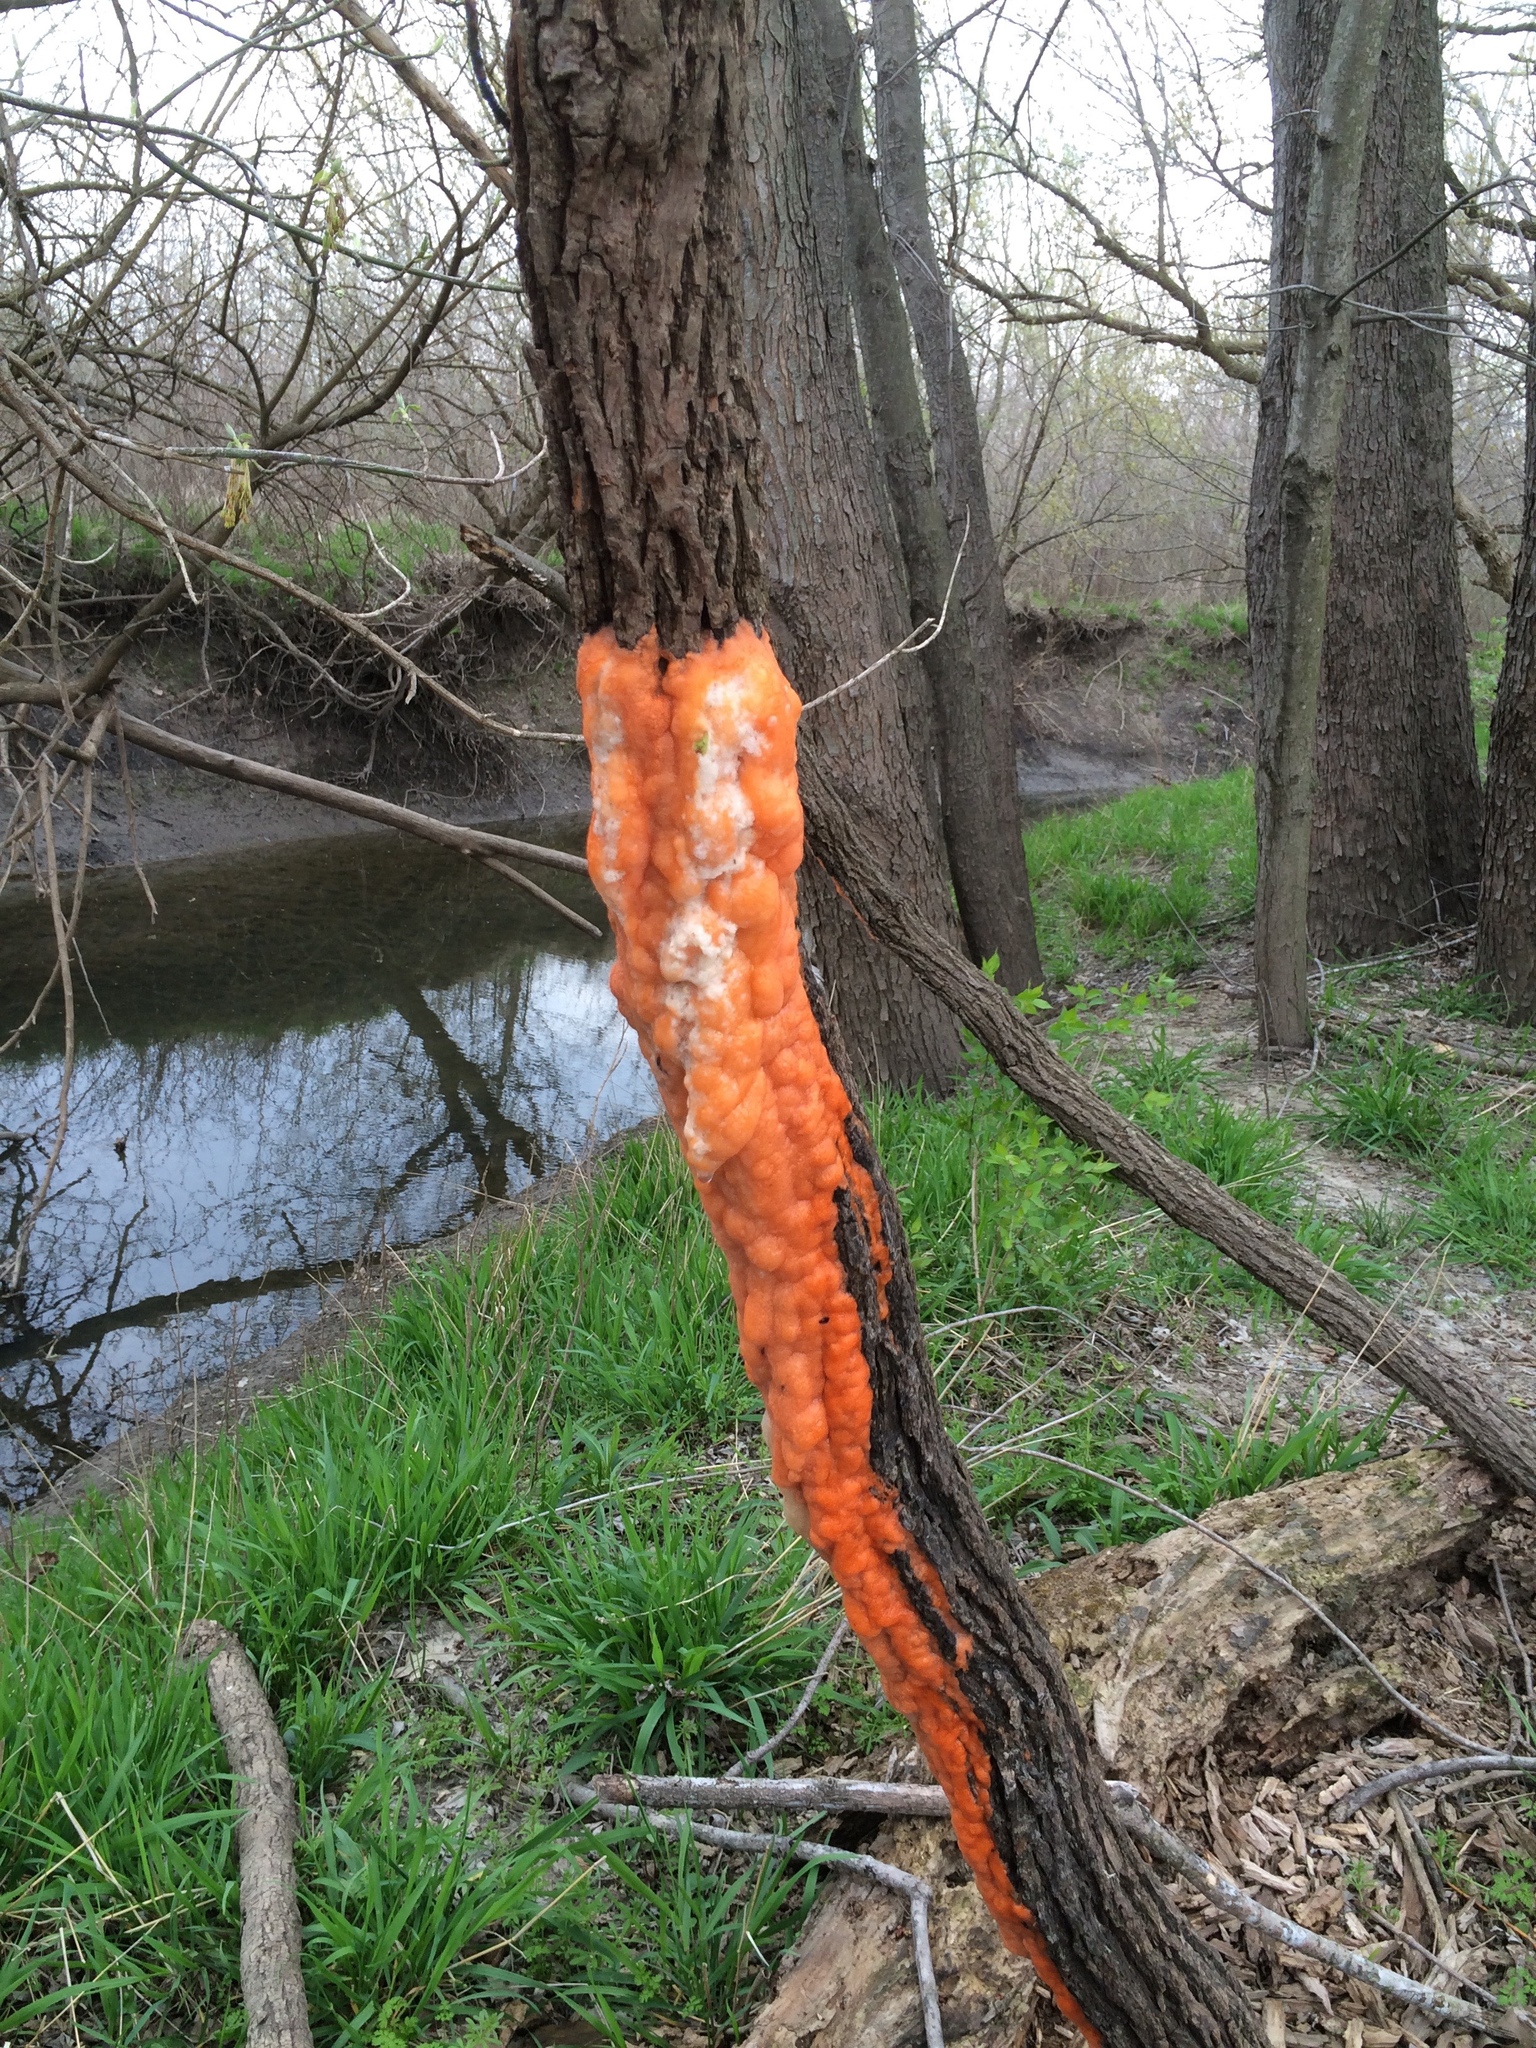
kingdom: Fungi
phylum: Ascomycota
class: Sordariomycetes
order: Hypocreales
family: Nectriaceae
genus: Fusicolla
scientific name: Fusicolla merismoides
